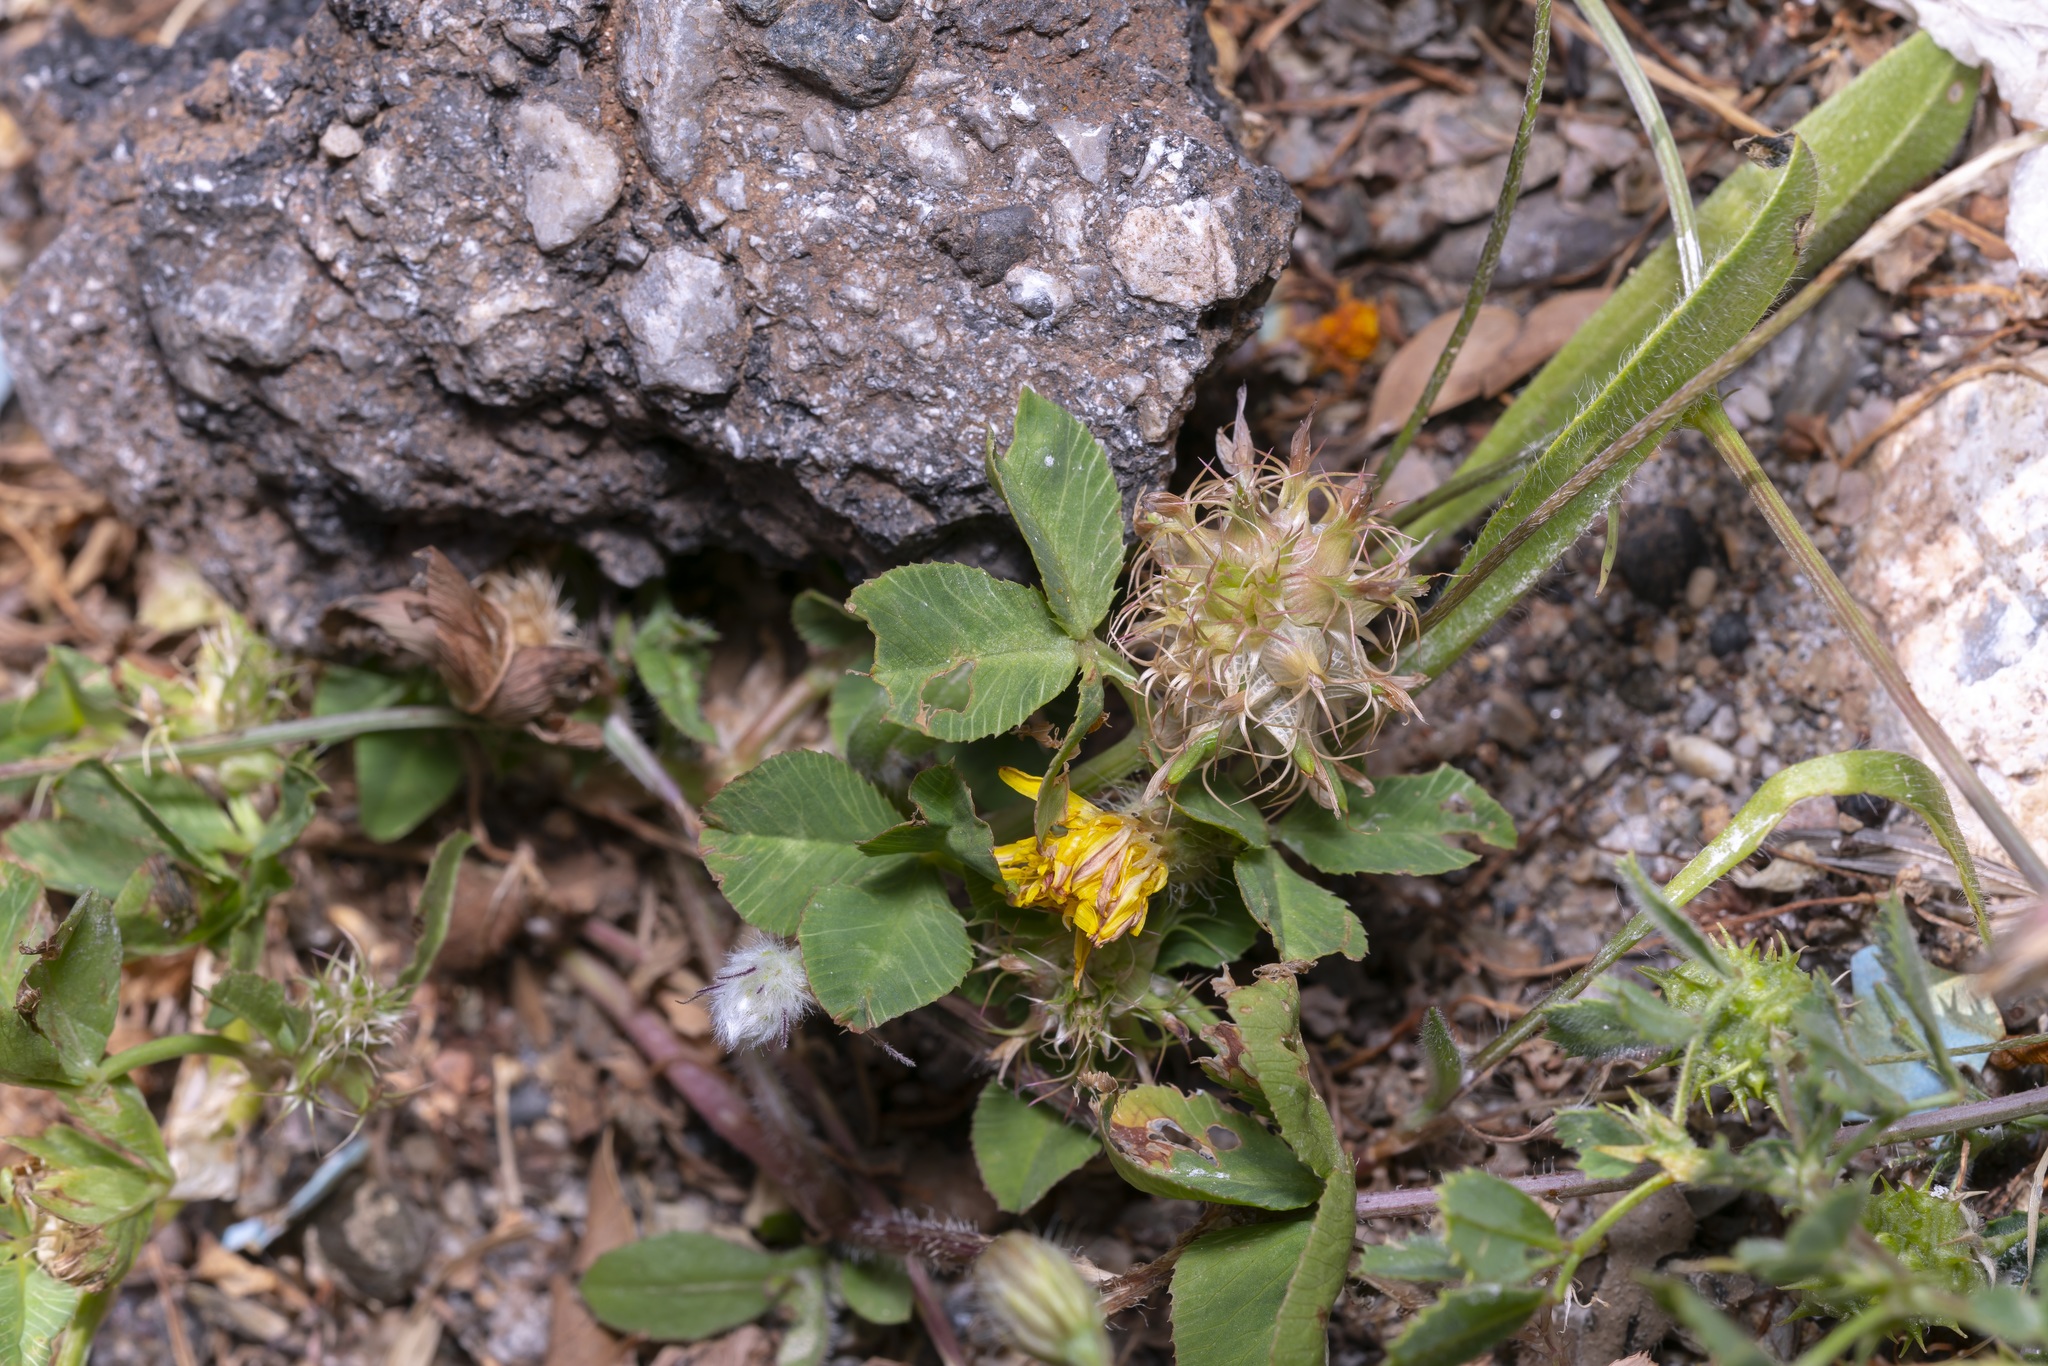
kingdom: Plantae
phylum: Tracheophyta
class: Magnoliopsida
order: Fabales
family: Fabaceae
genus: Trifolium
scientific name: Trifolium spumosum
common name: Mediterranean clover
